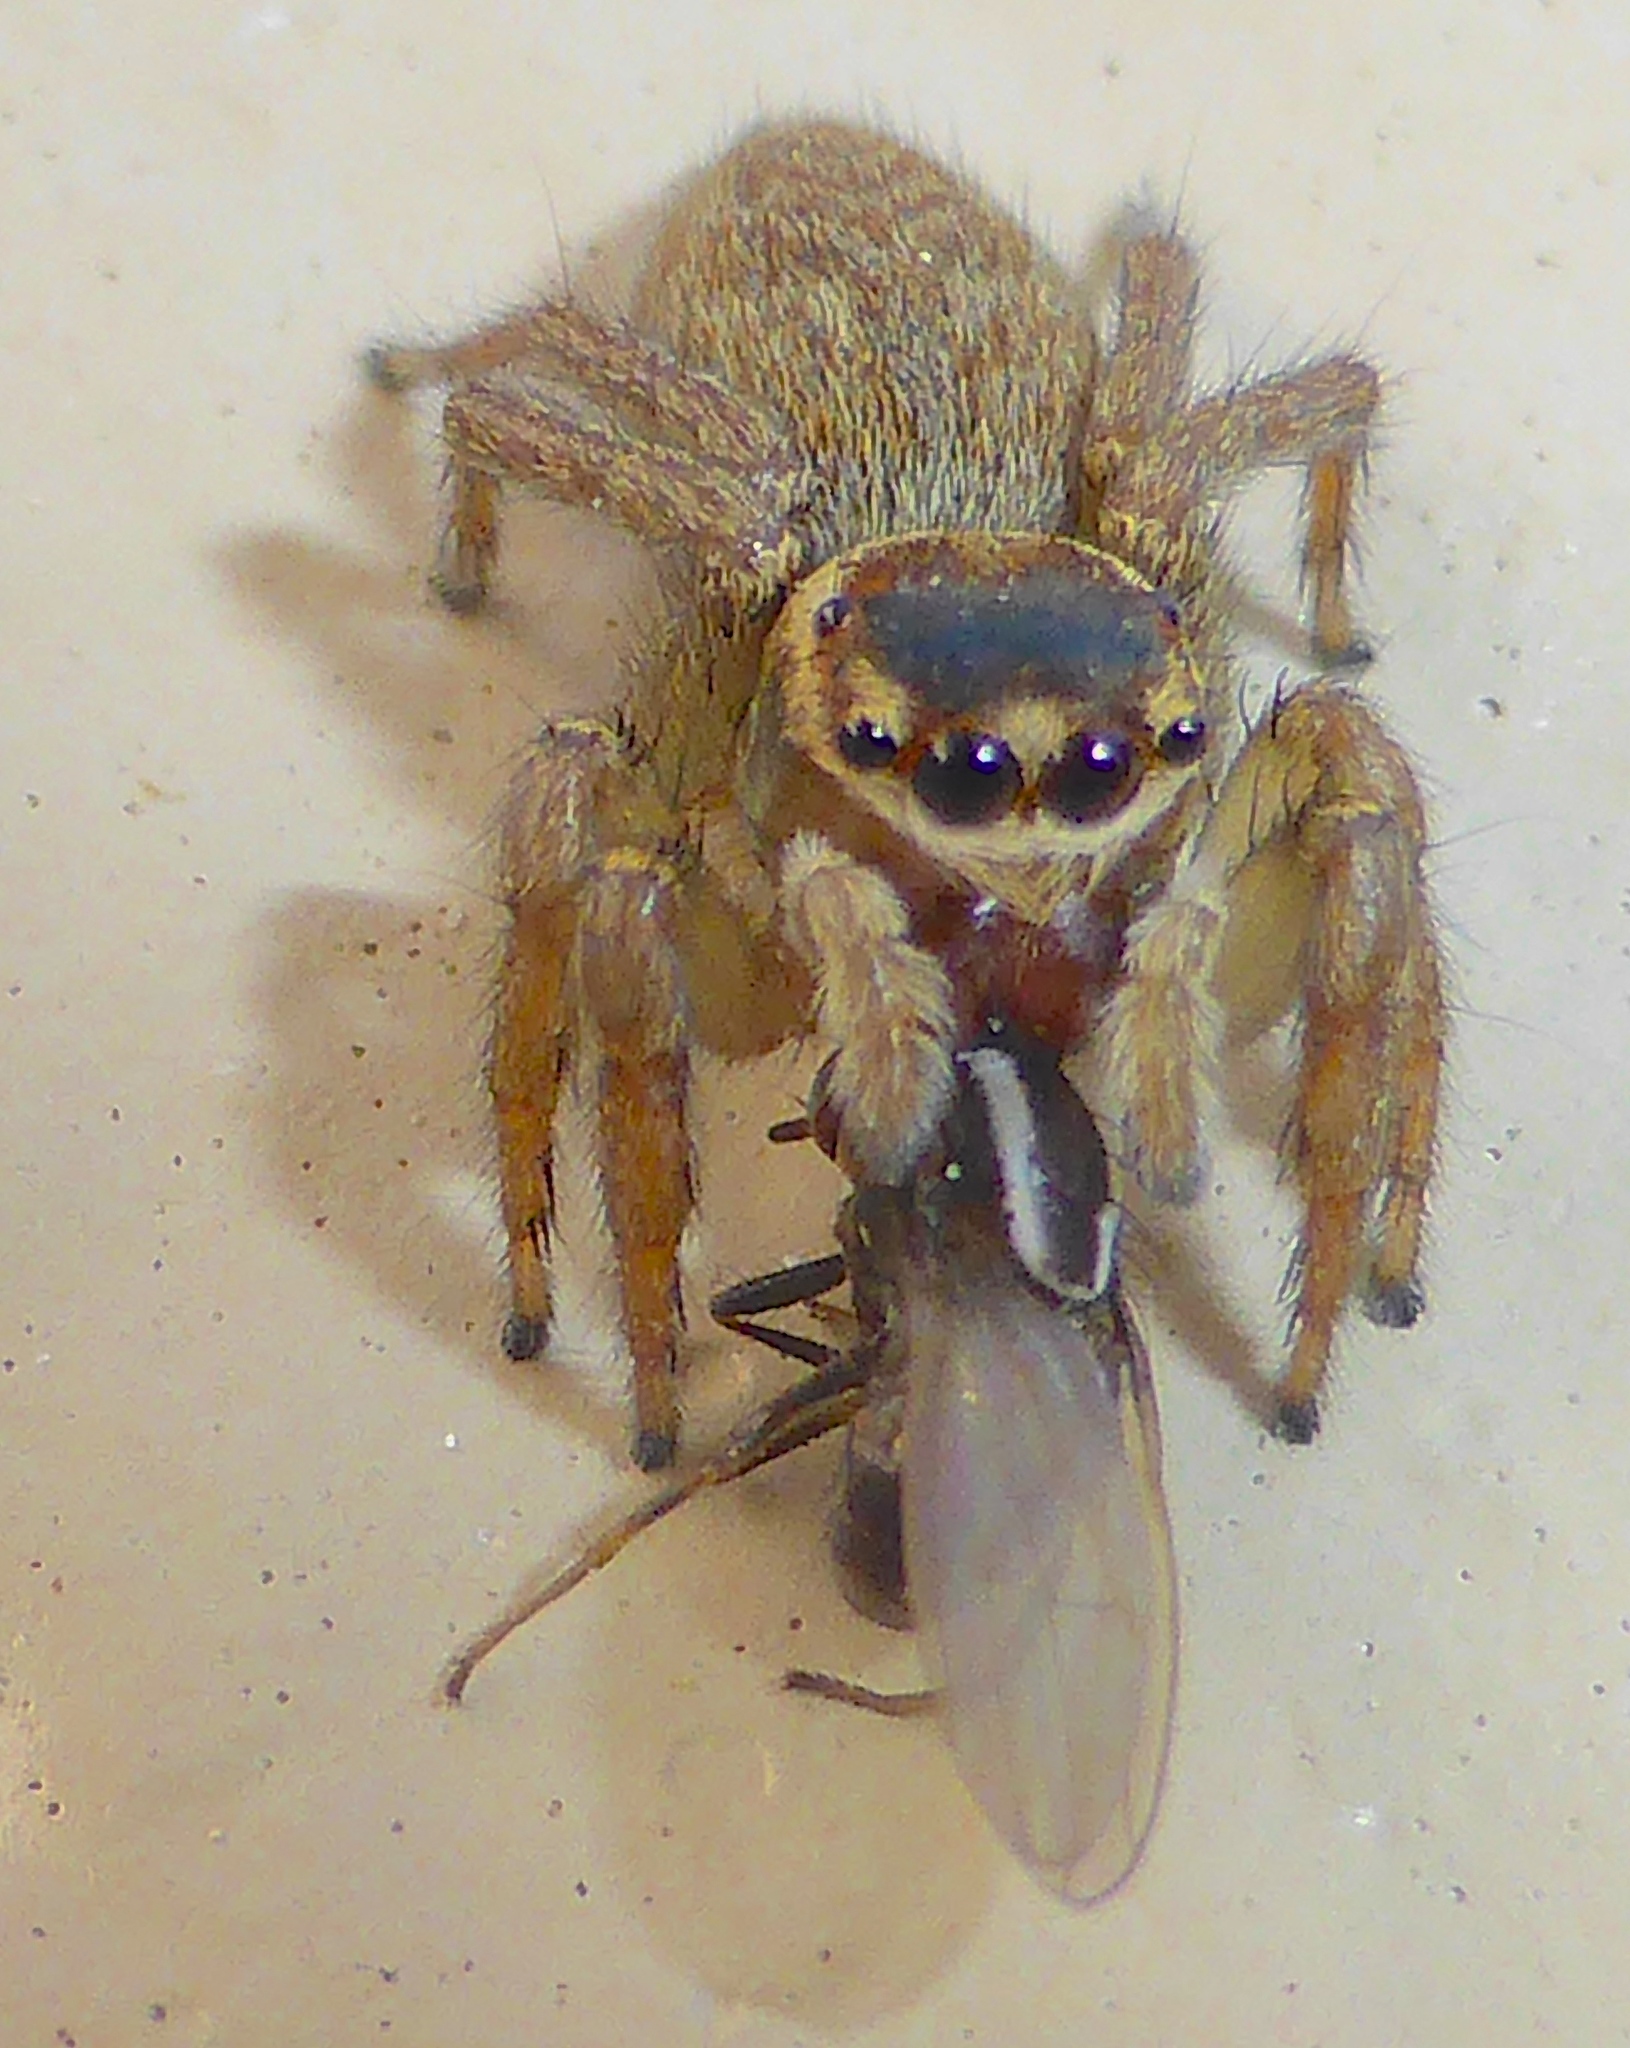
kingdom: Animalia
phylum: Arthropoda
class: Arachnida
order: Araneae
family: Salticidae
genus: Maratus
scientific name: Maratus griseus
